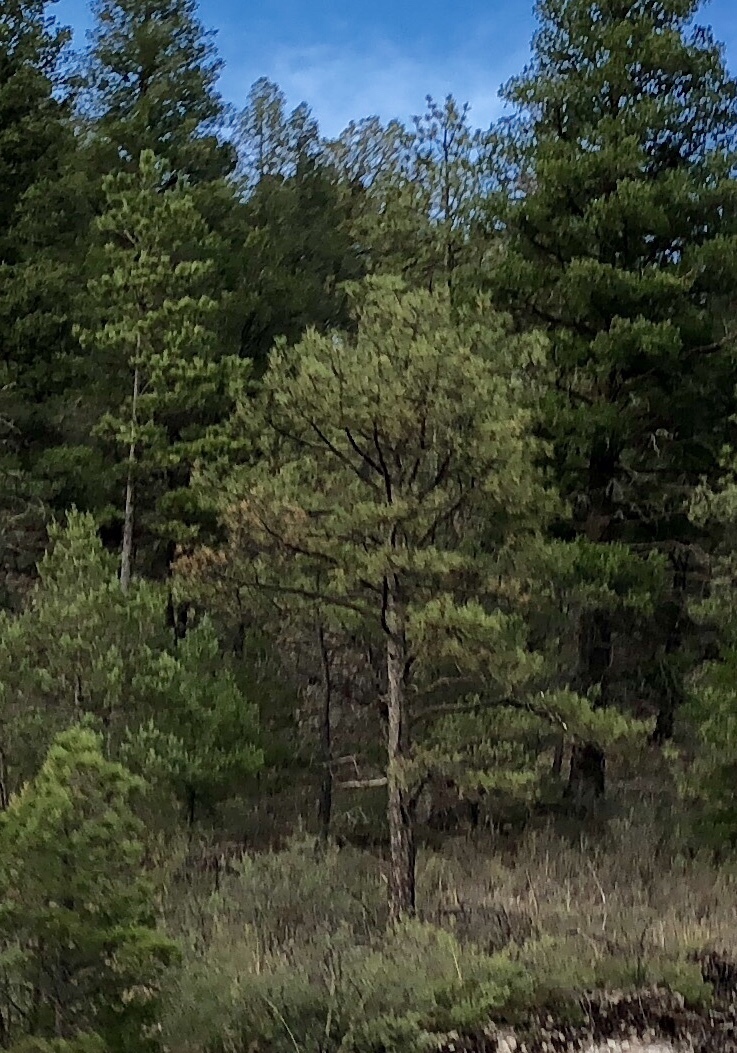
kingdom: Plantae
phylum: Tracheophyta
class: Pinopsida
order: Pinales
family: Pinaceae
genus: Pinus
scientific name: Pinus ponderosa
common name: Western yellow-pine
